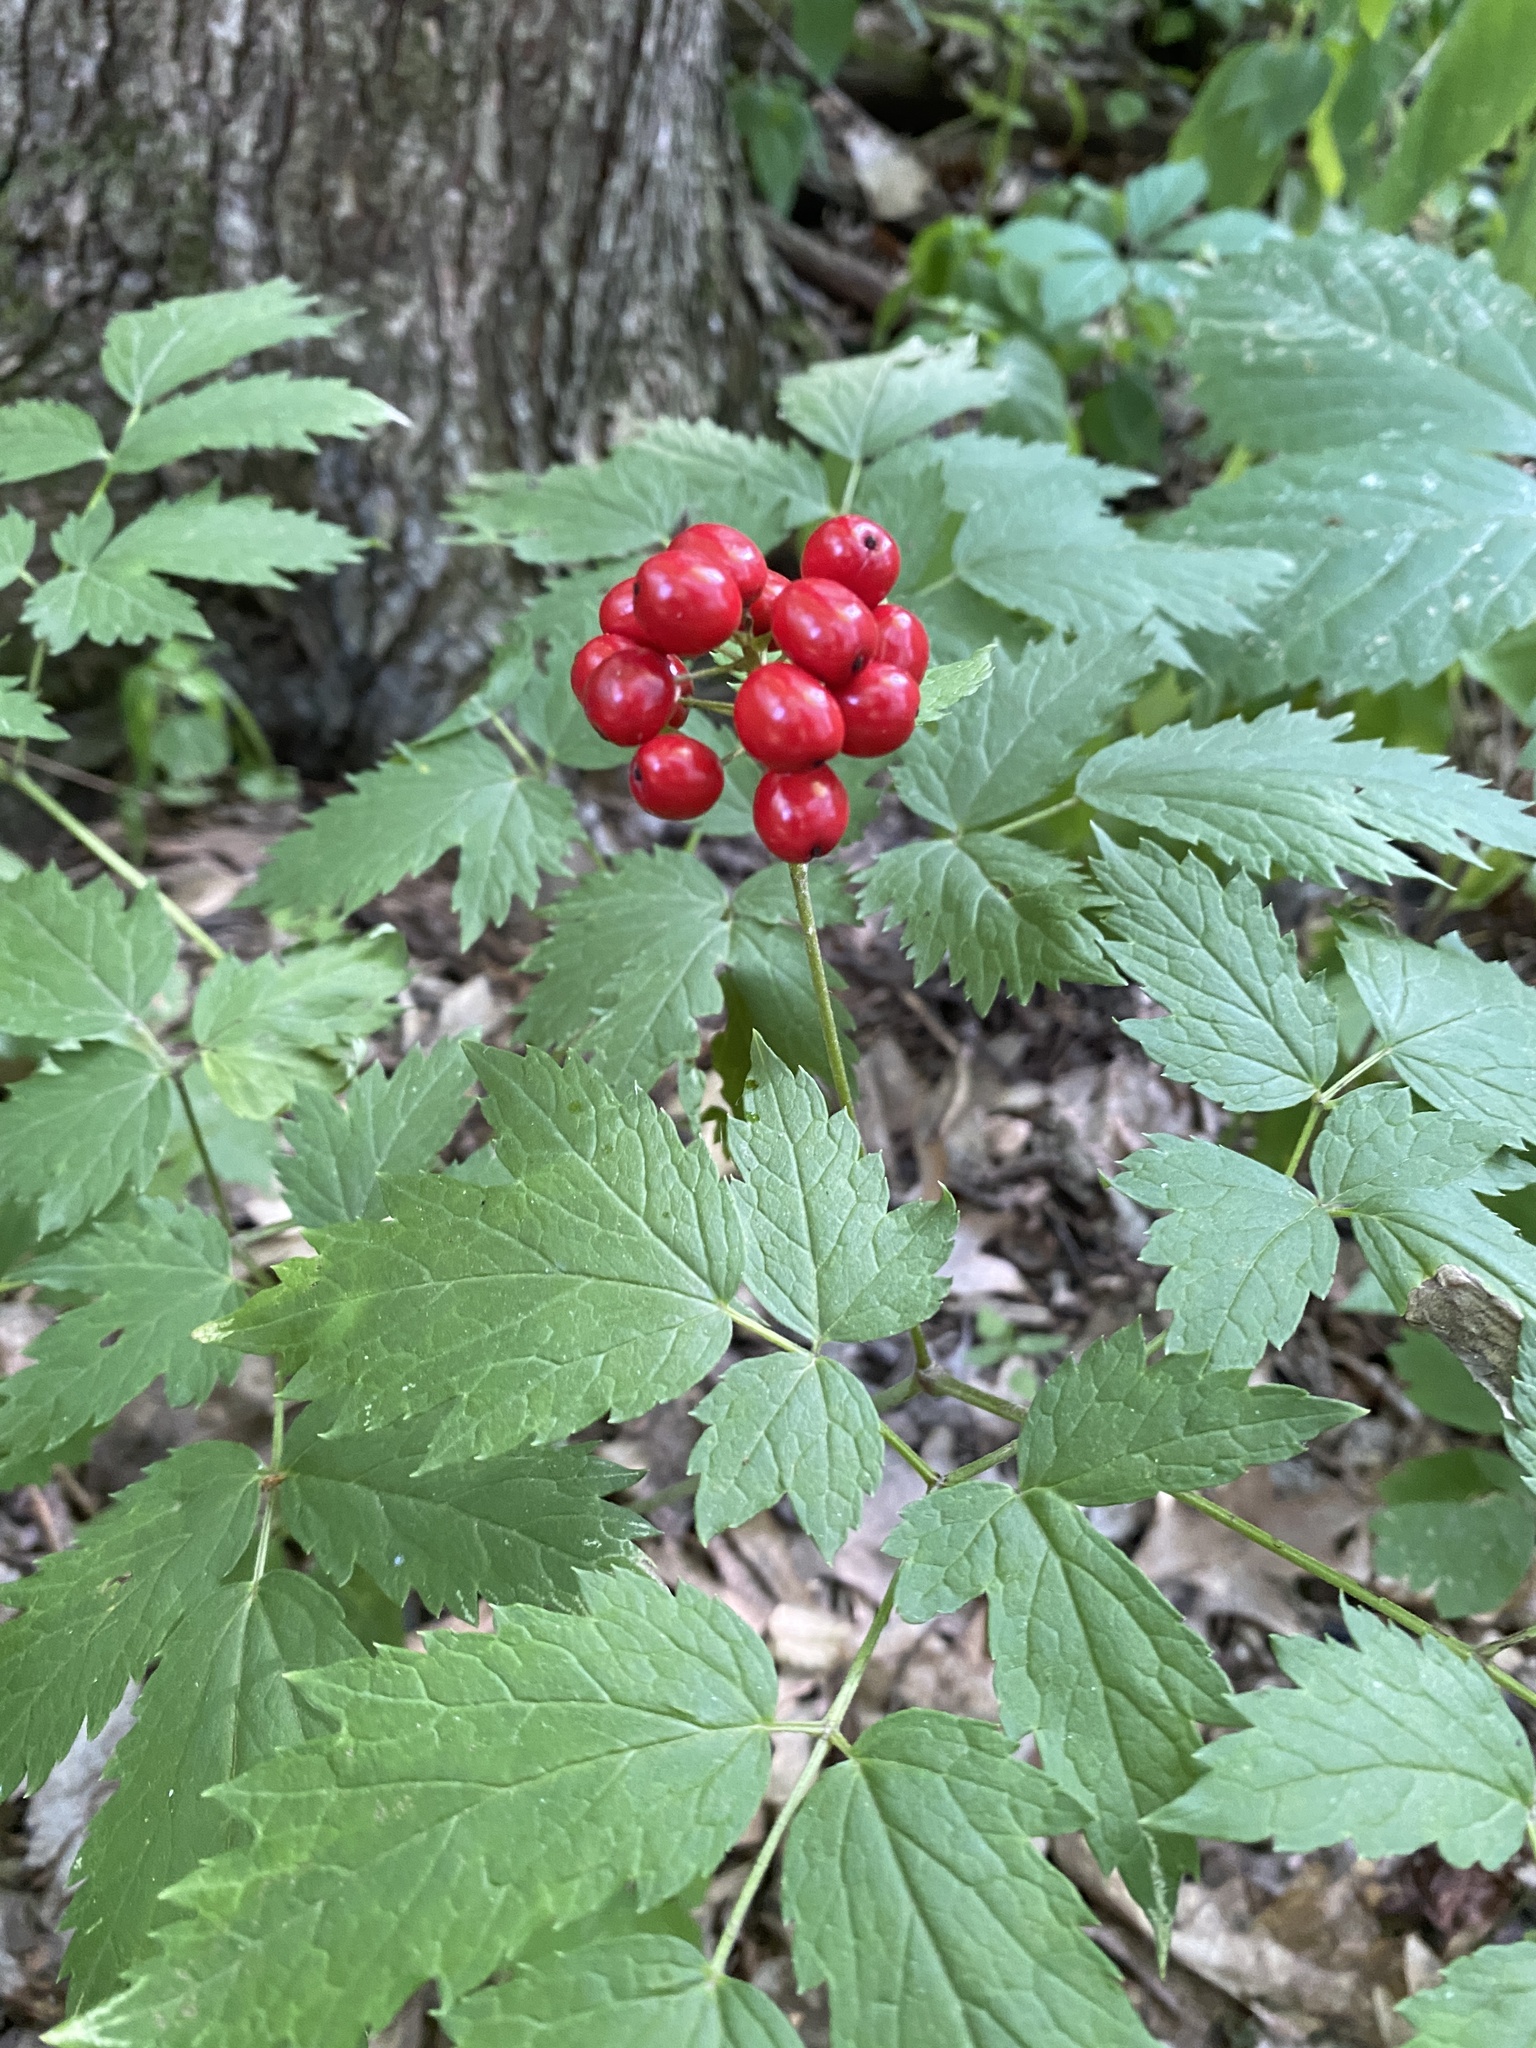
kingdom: Plantae
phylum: Tracheophyta
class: Magnoliopsida
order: Ranunculales
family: Ranunculaceae
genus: Actaea
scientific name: Actaea rubra
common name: Red baneberry
